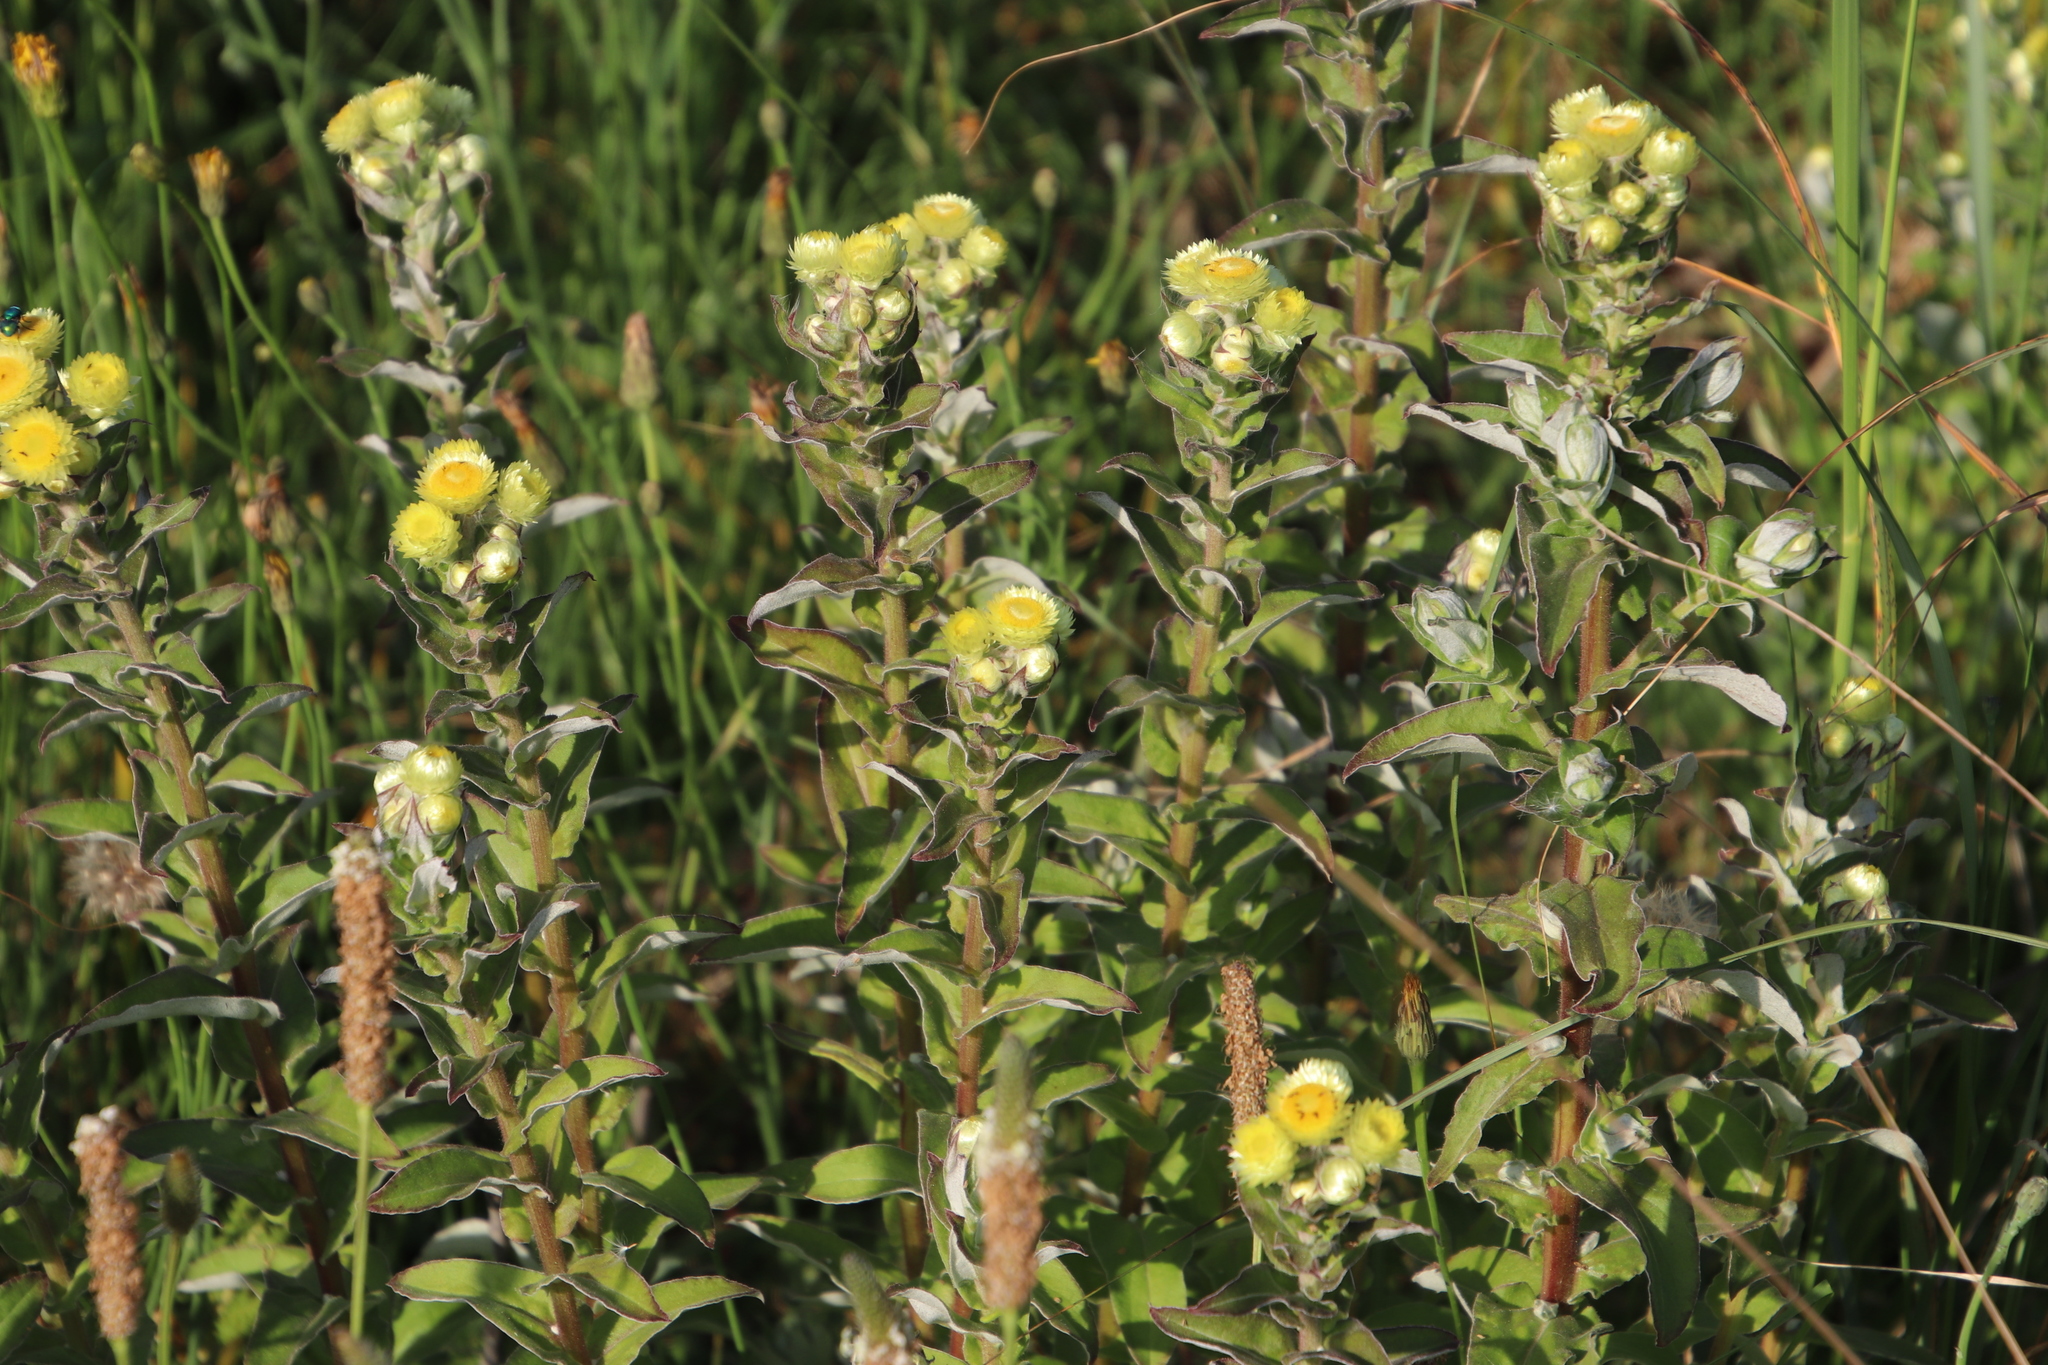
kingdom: Plantae
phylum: Tracheophyta
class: Magnoliopsida
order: Asterales
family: Asteraceae
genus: Helichrysum
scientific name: Helichrysum foetidum
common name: Stinking everlasting
